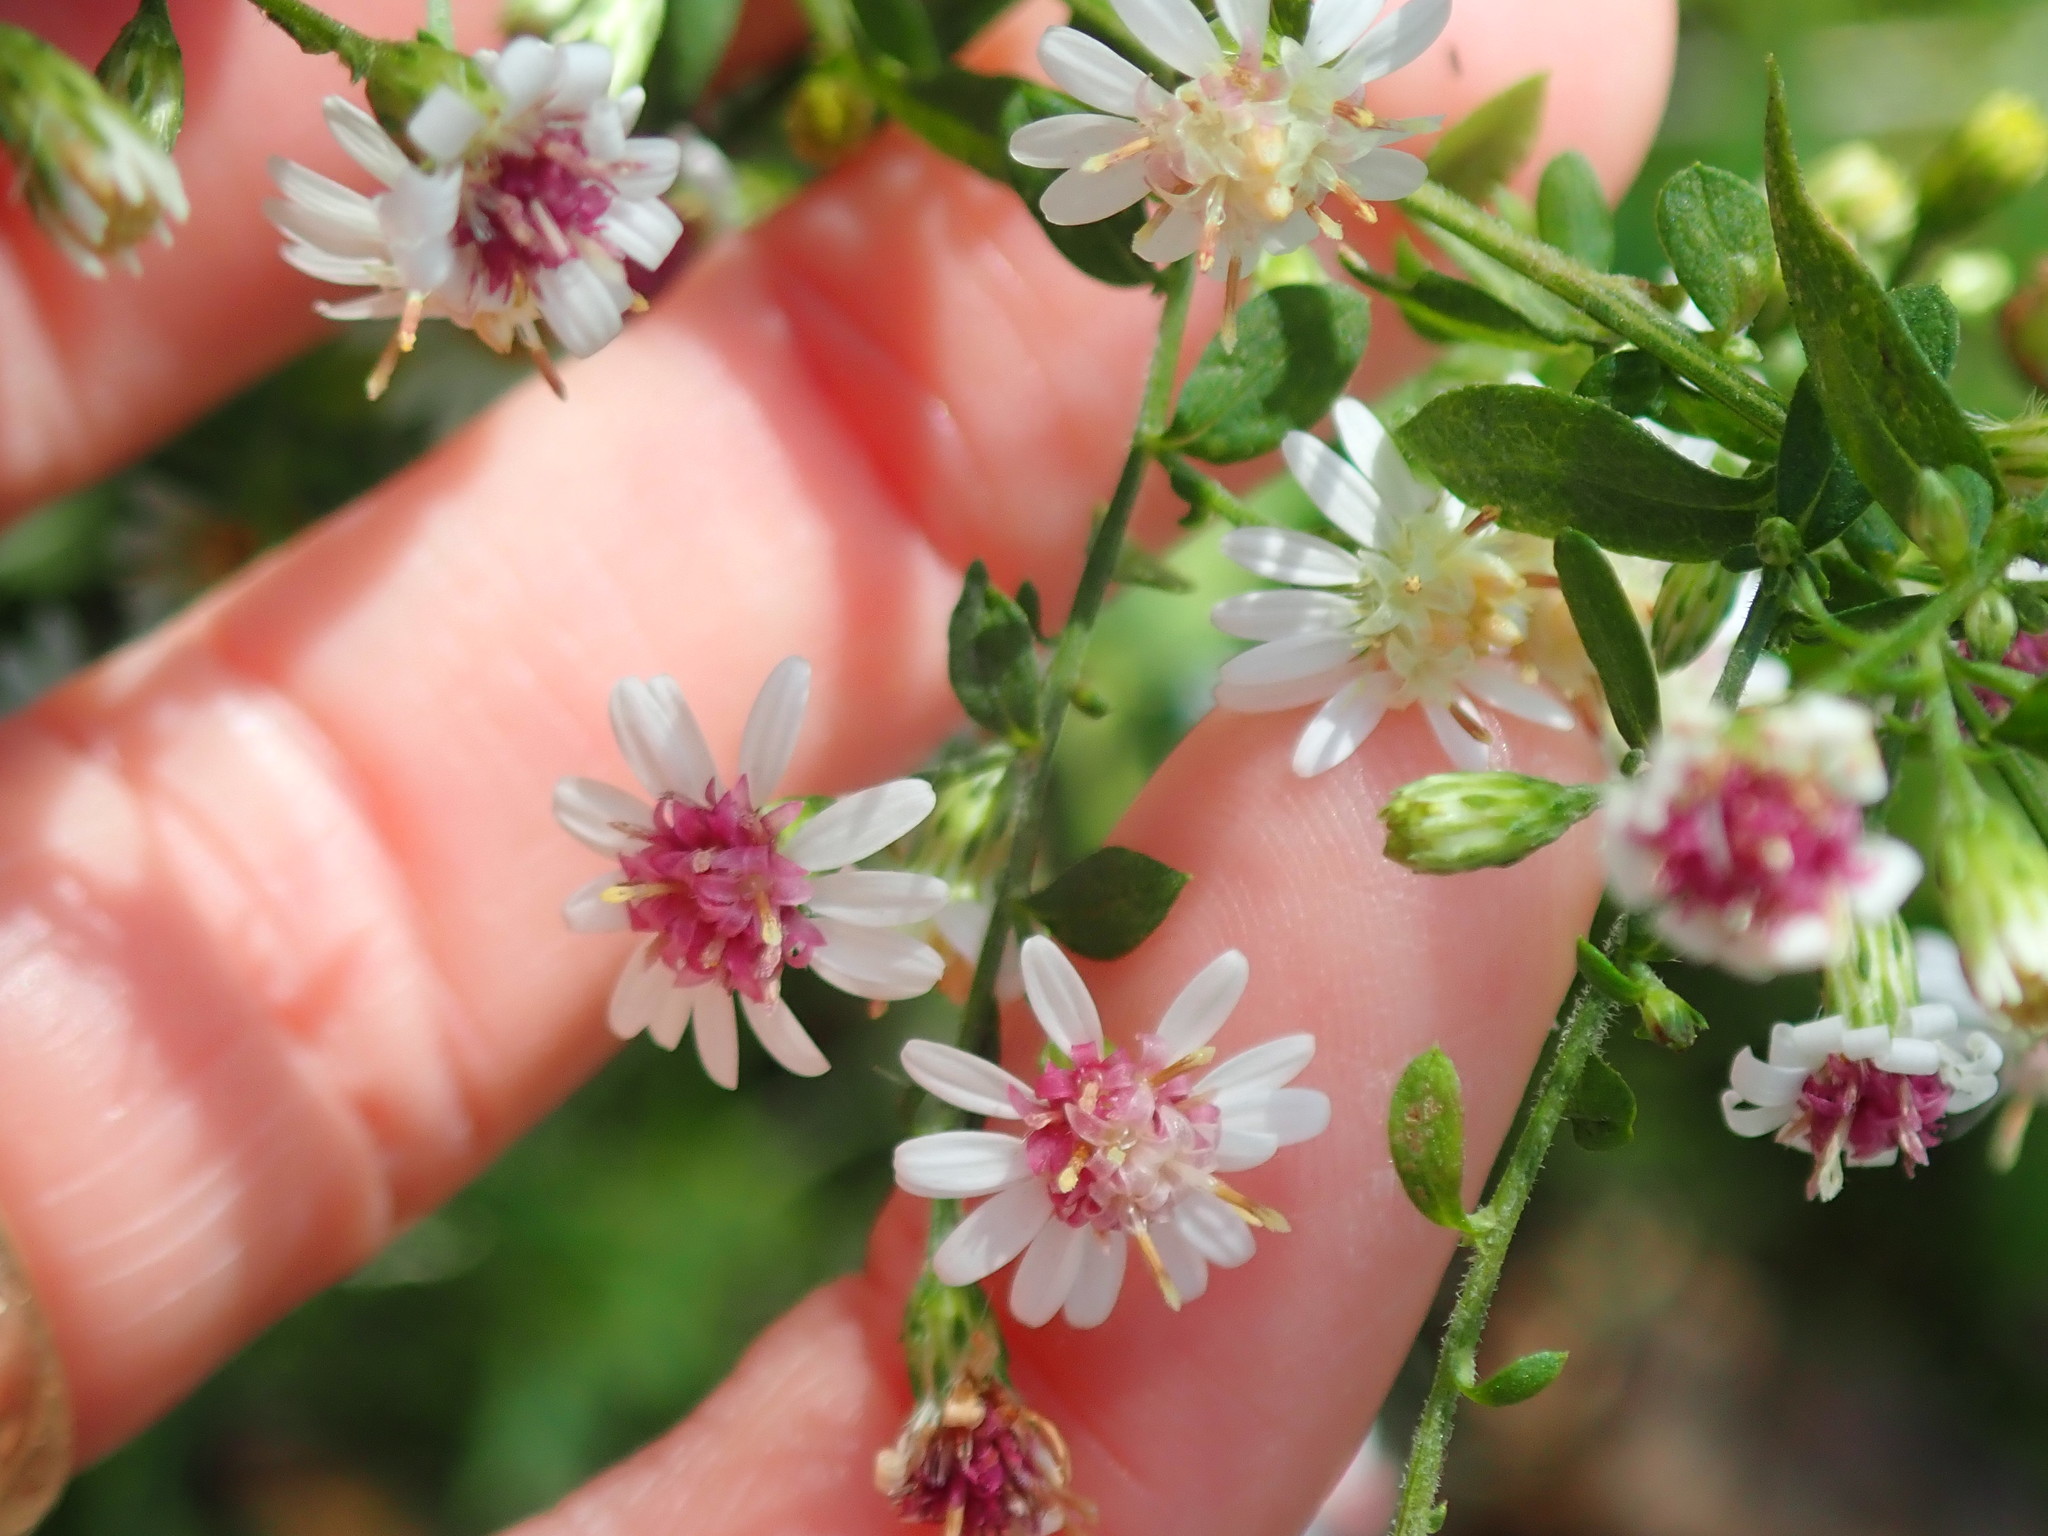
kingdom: Plantae
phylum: Tracheophyta
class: Magnoliopsida
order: Asterales
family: Asteraceae
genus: Symphyotrichum
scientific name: Symphyotrichum lateriflorum
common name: Calico aster
